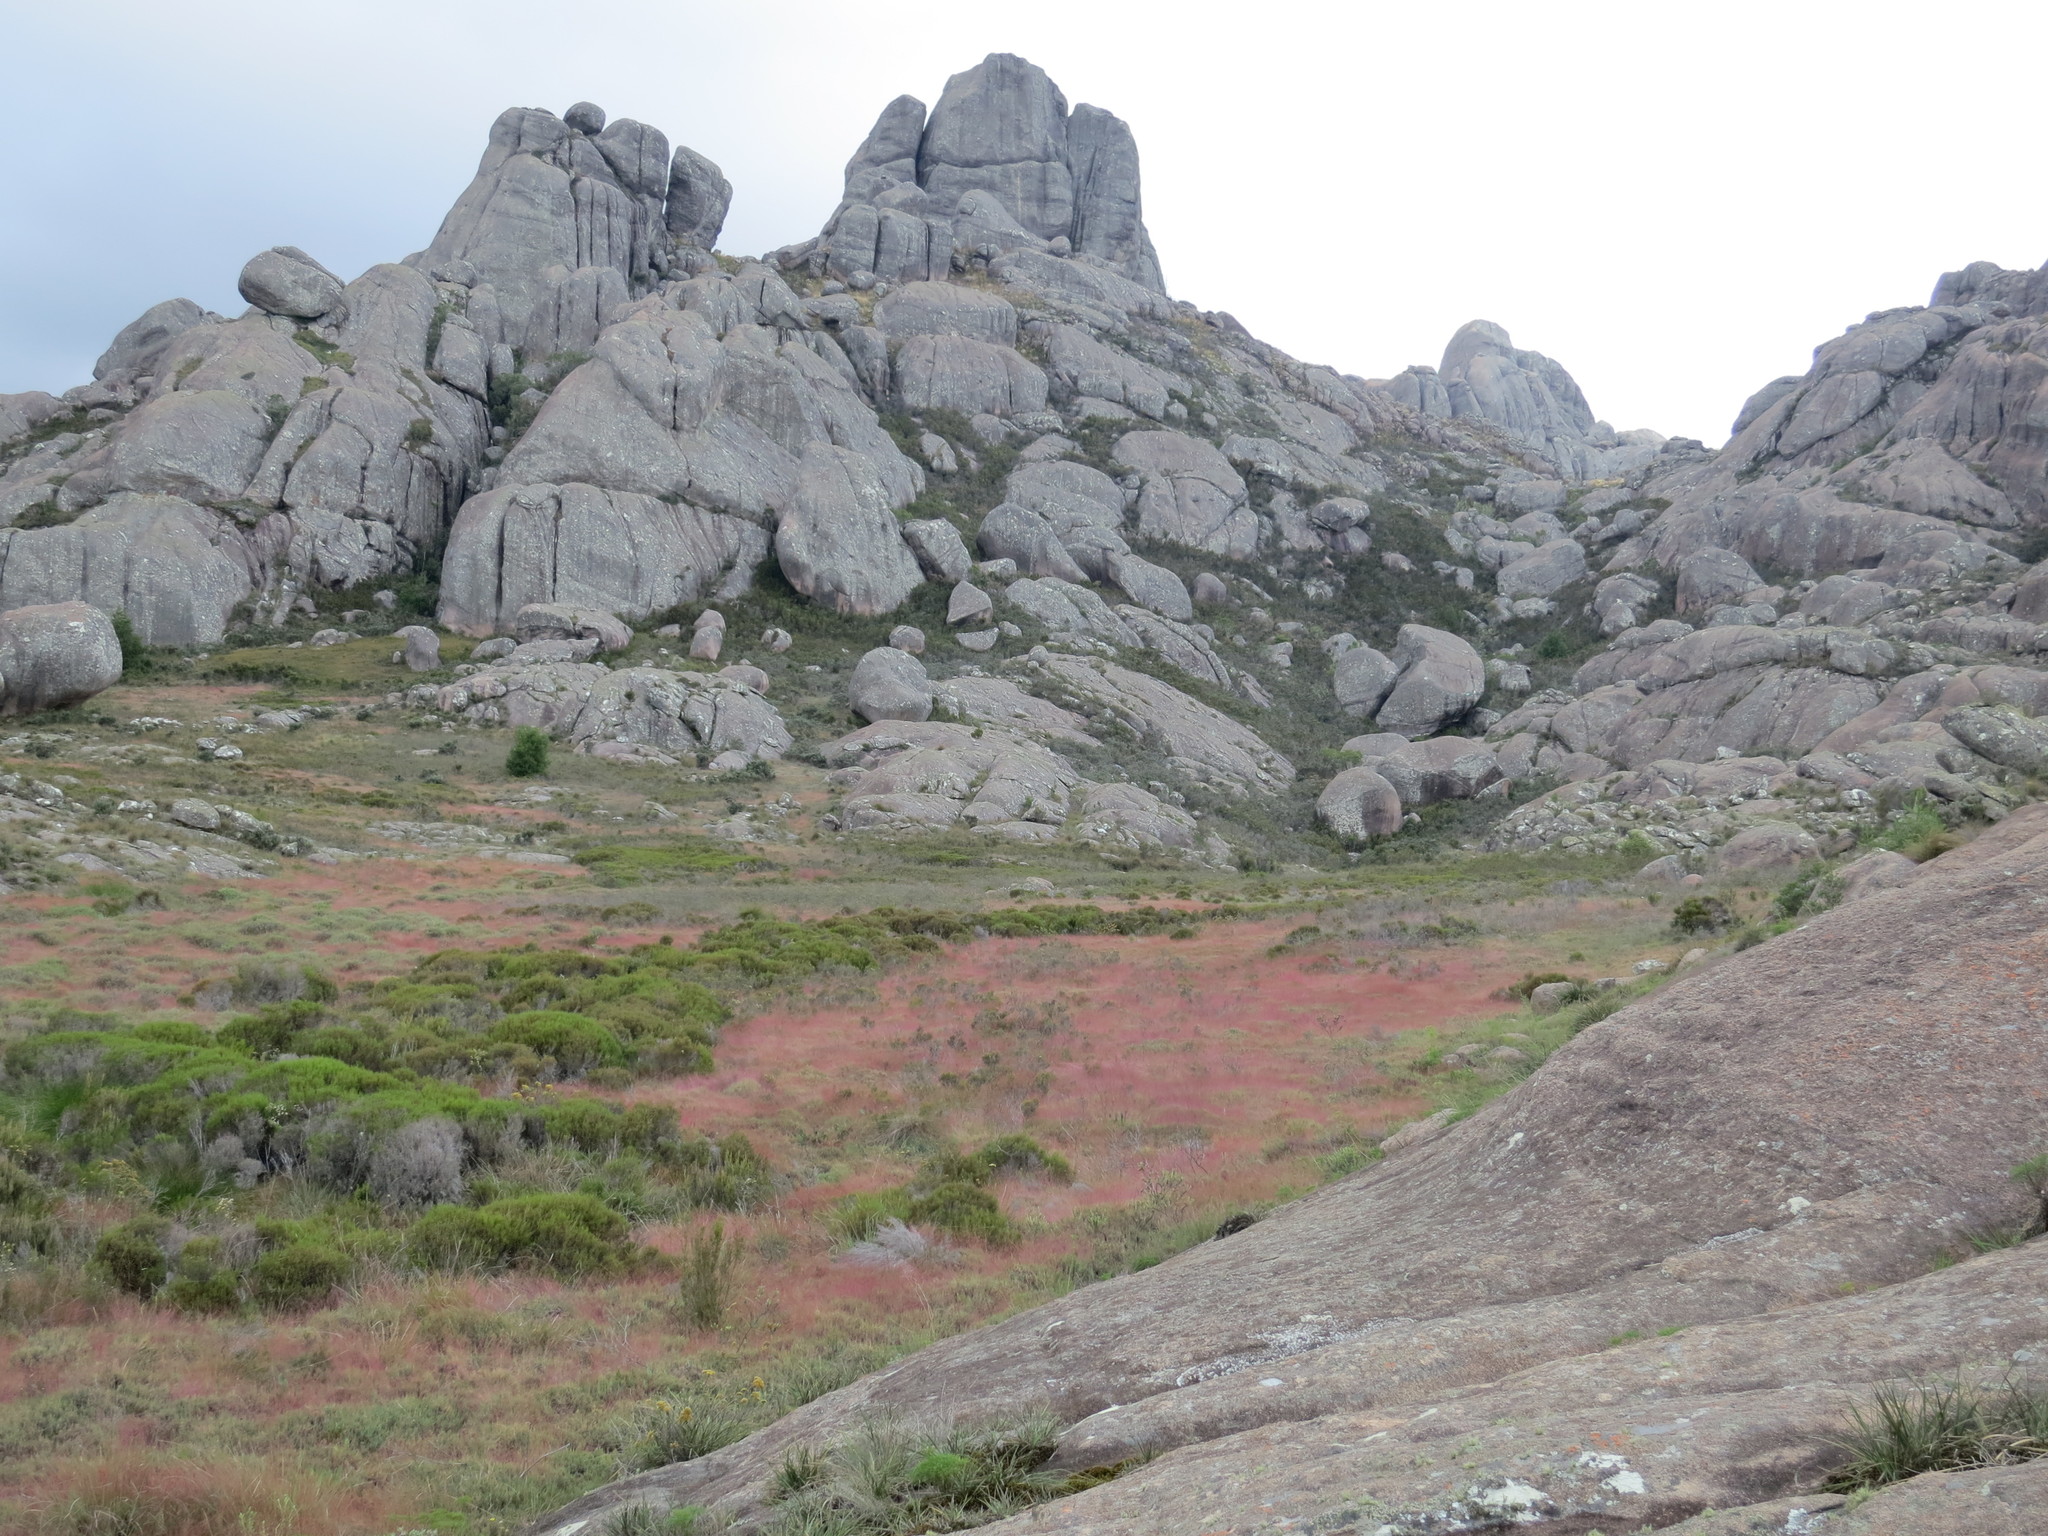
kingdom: Plantae
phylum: Tracheophyta
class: Liliopsida
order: Poales
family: Poaceae
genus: Panicum
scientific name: Panicum spergulifolium
